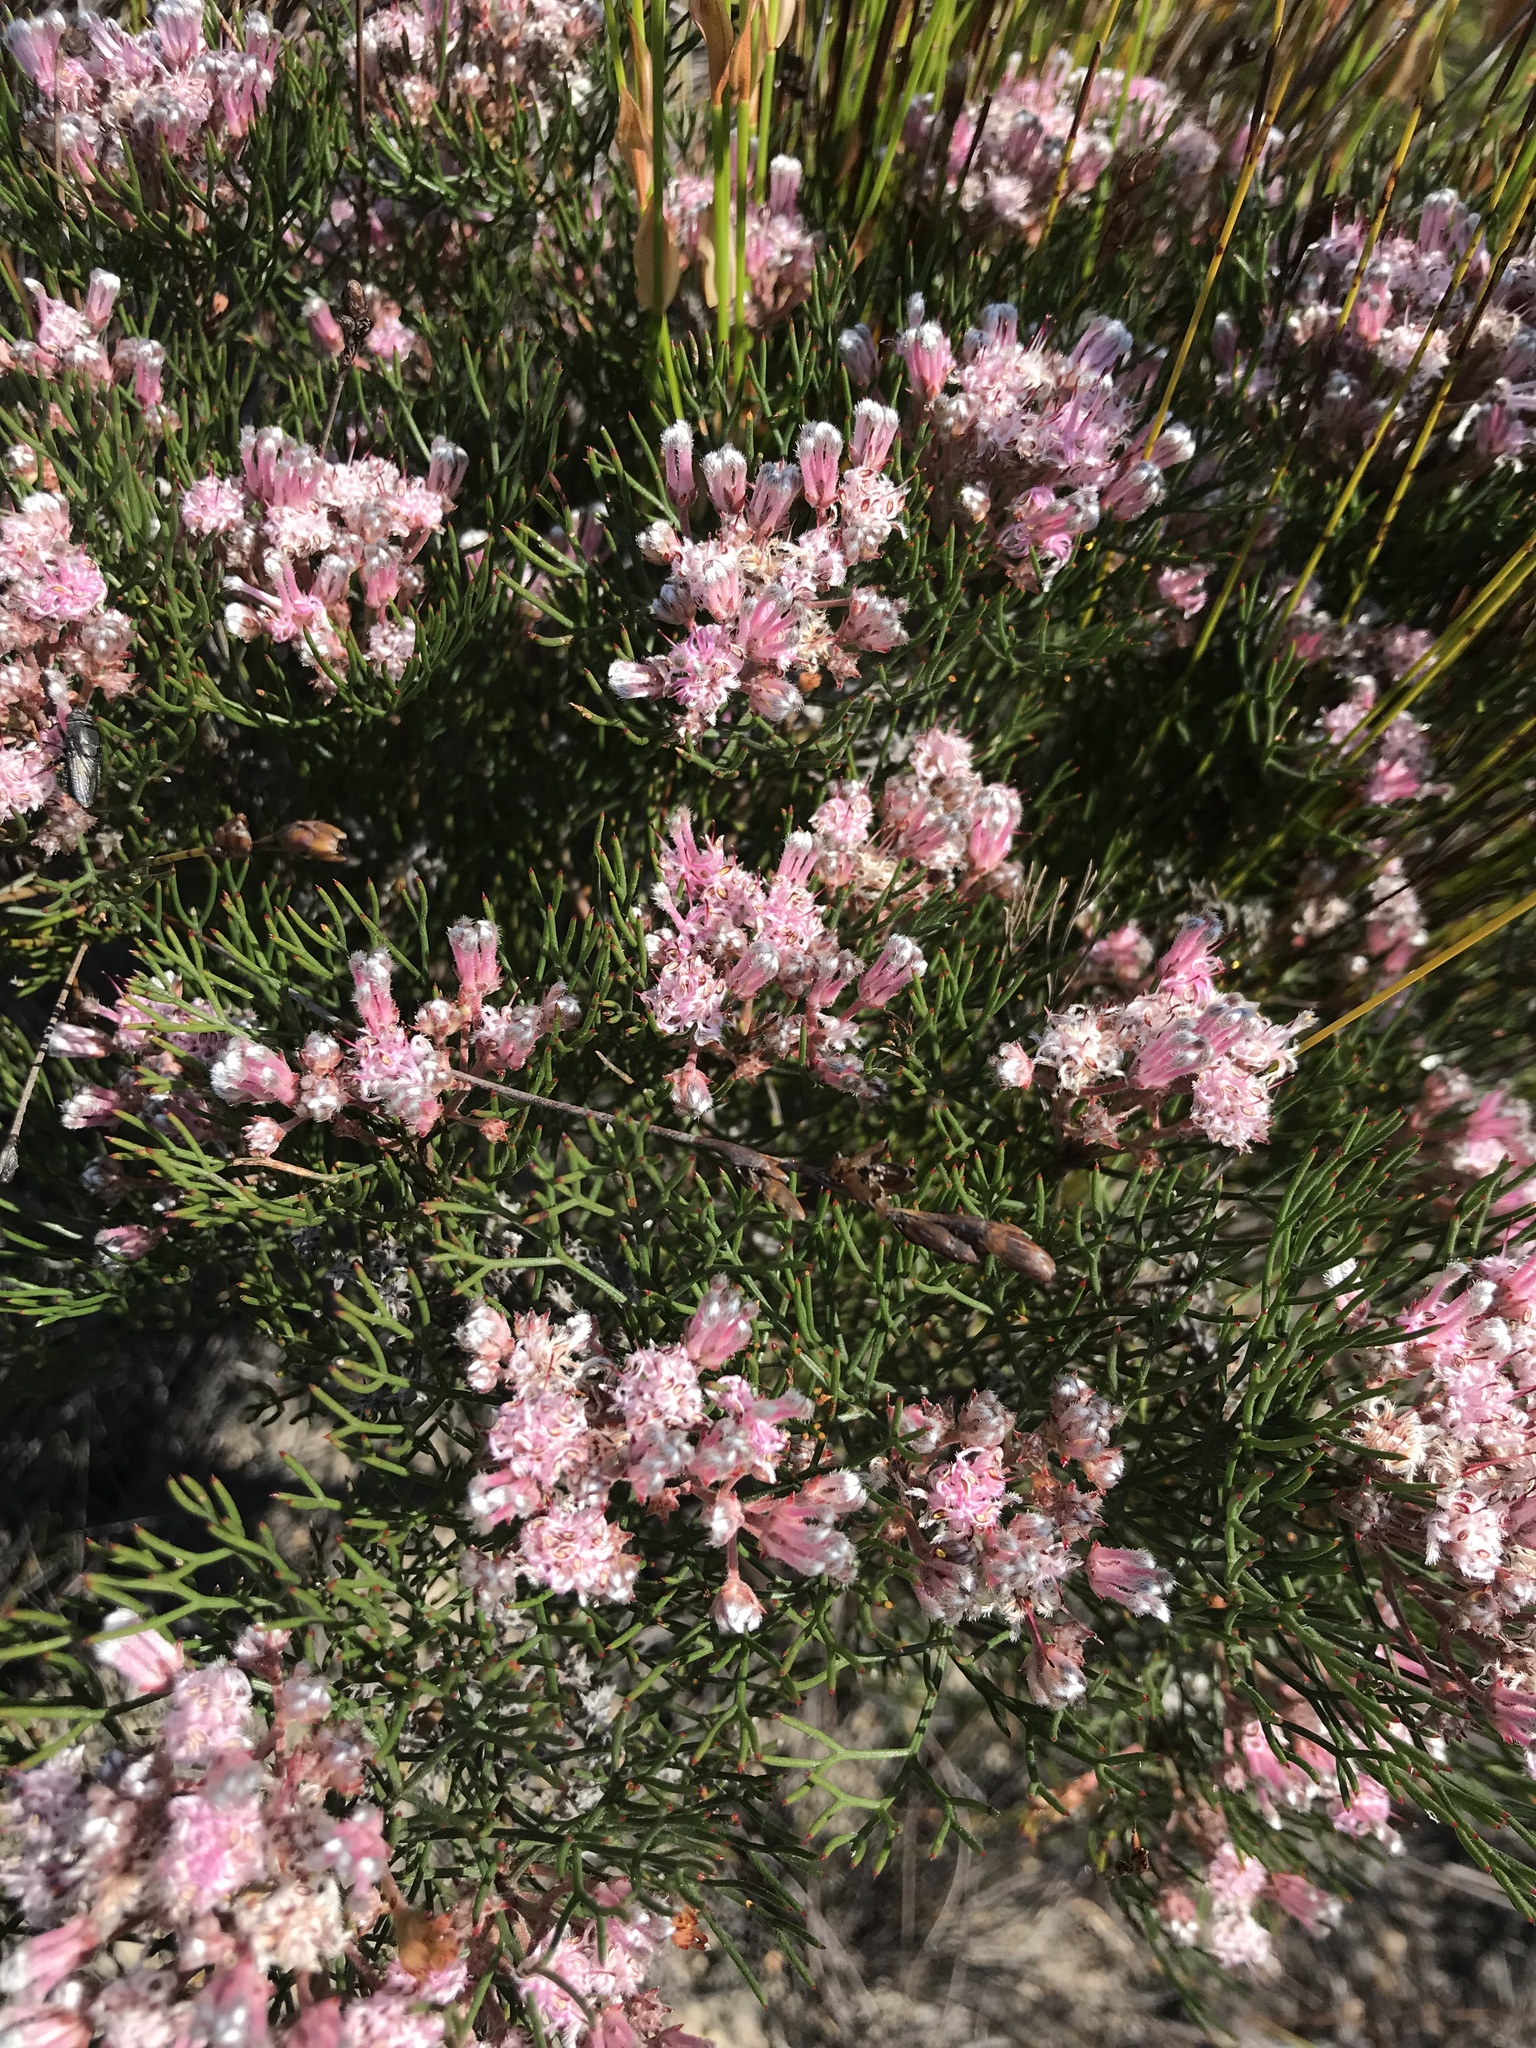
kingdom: Plantae
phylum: Tracheophyta
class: Magnoliopsida
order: Proteales
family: Proteaceae
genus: Serruria
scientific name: Serruria fasciflora
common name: Common pin spiderhead
